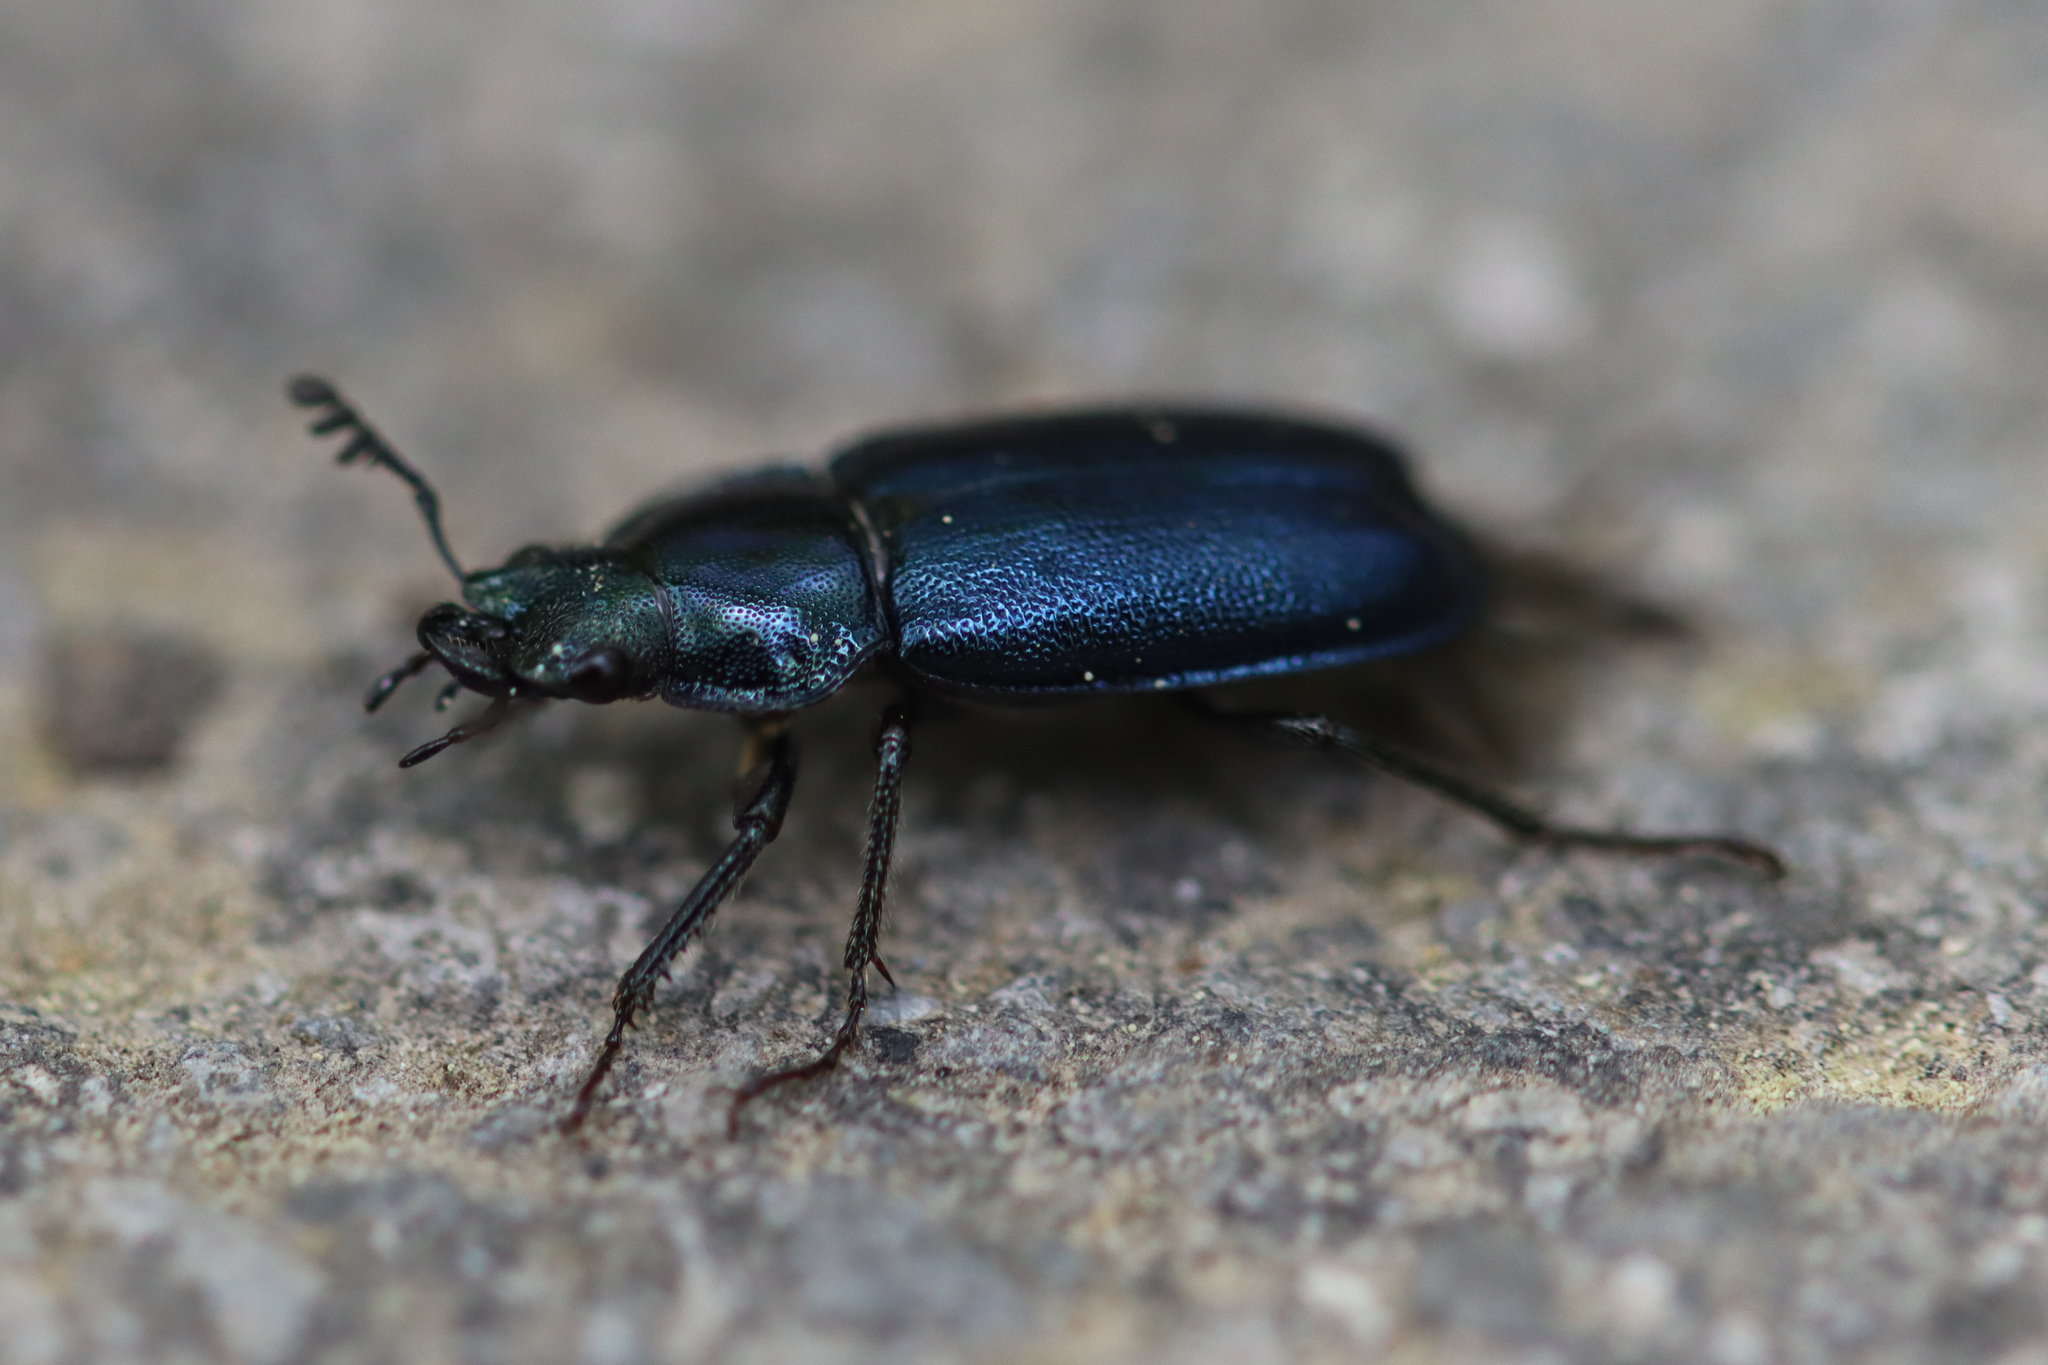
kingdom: Animalia
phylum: Arthropoda
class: Insecta
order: Coleoptera
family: Lucanidae
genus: Platycerus
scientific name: Platycerus caraboides
